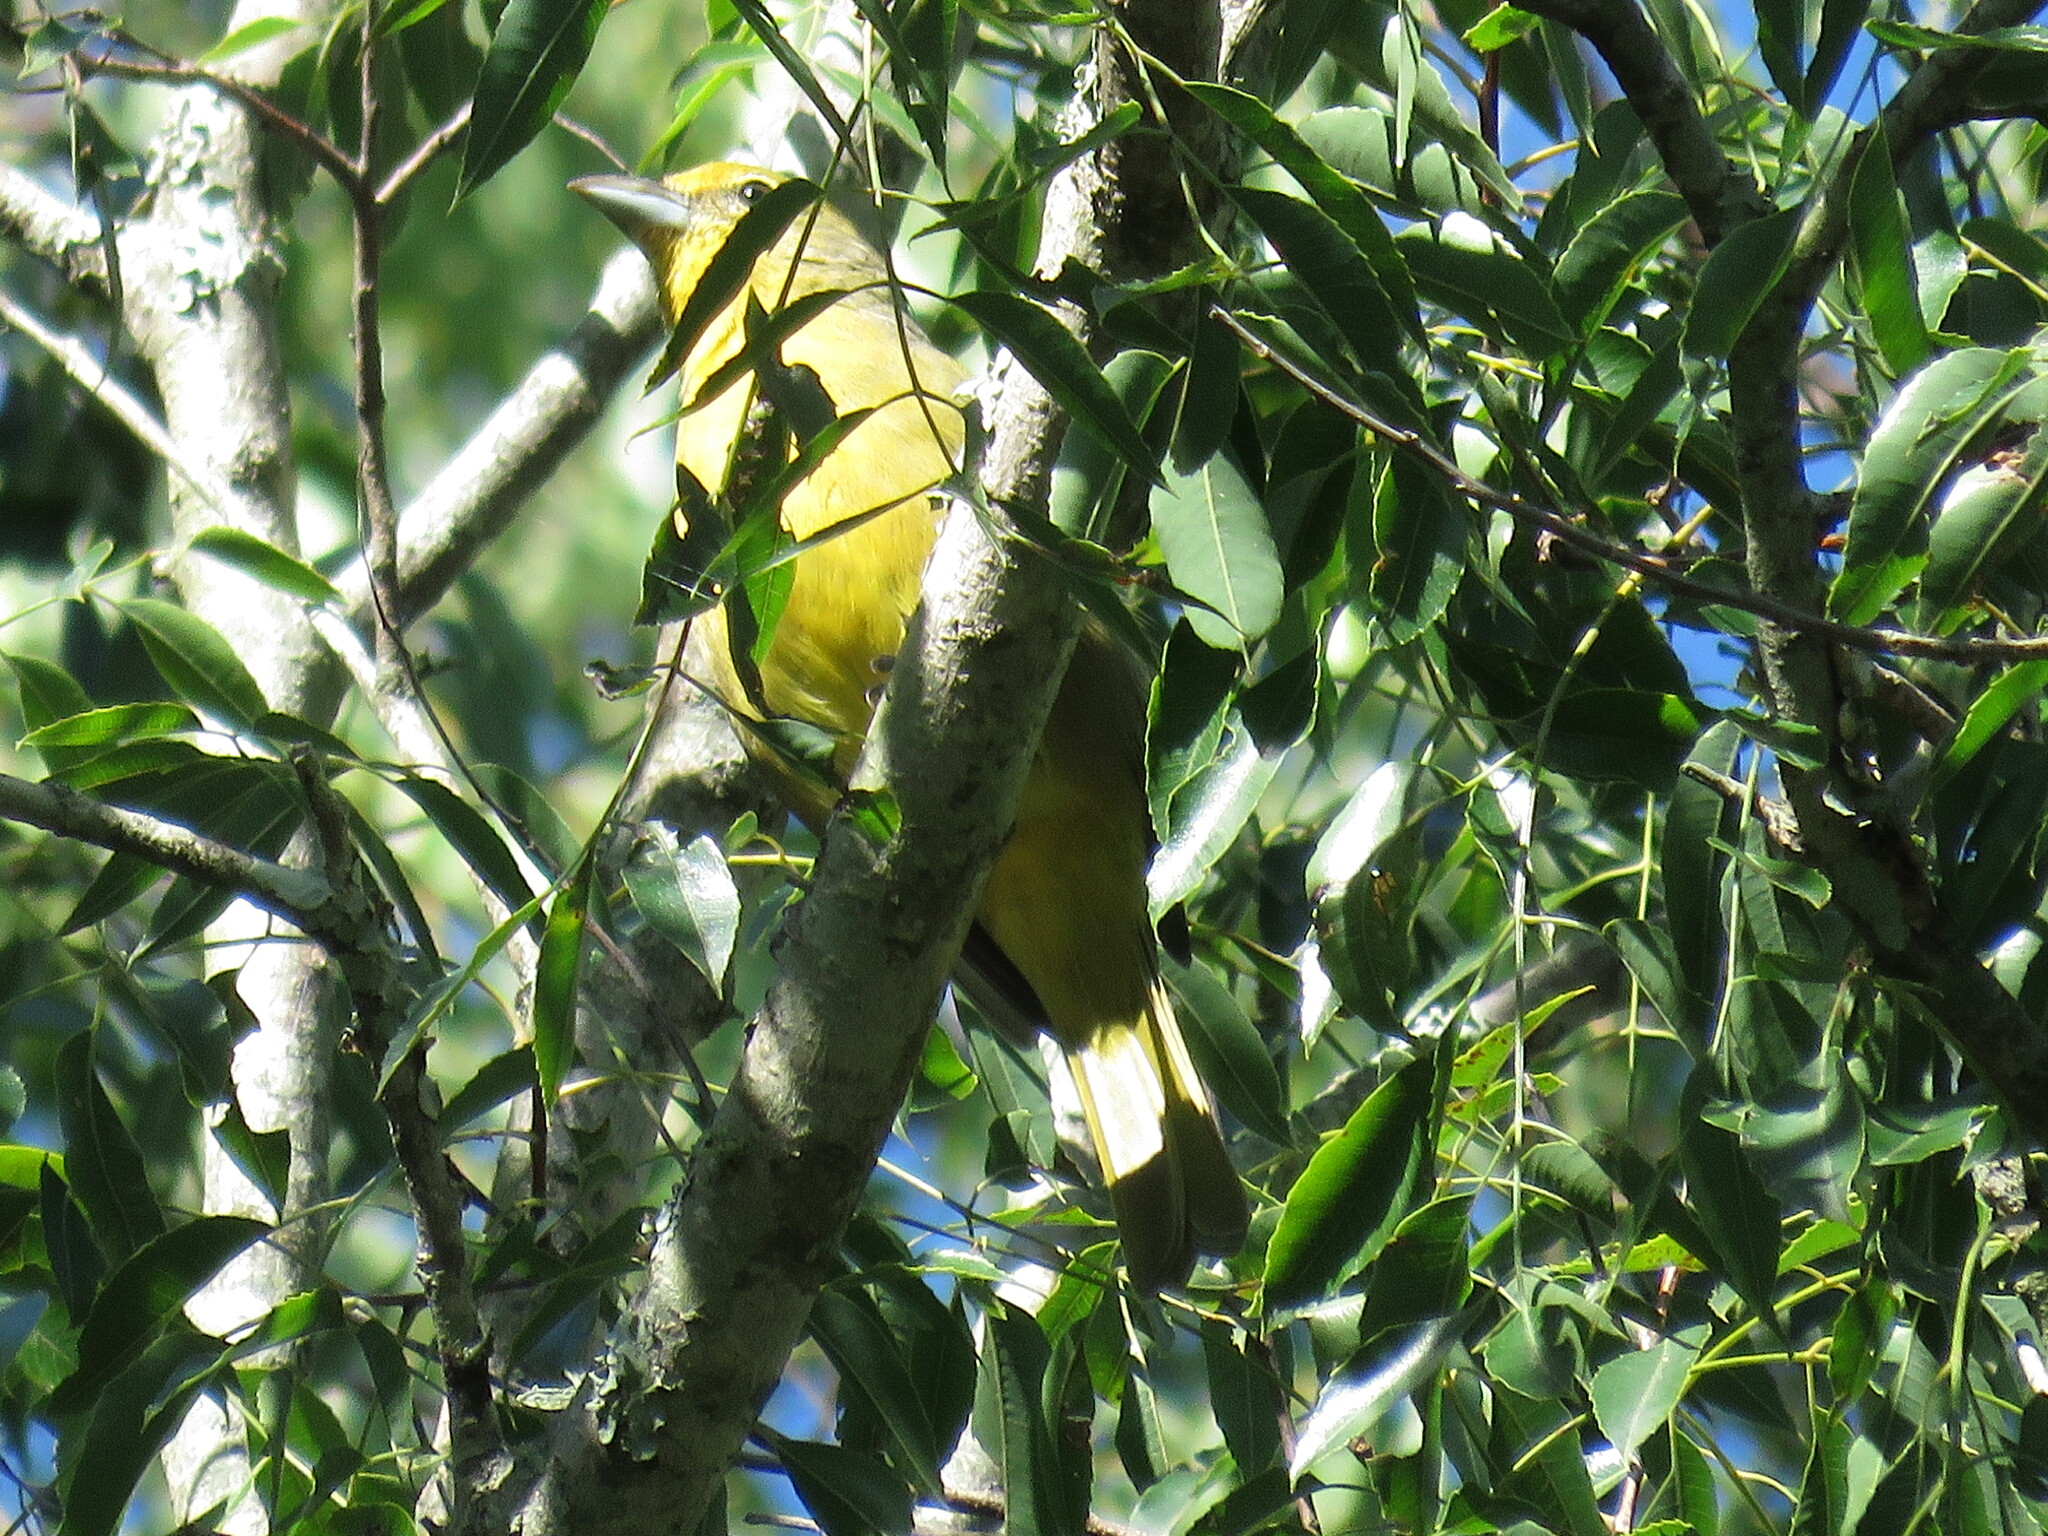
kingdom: Animalia
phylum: Chordata
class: Aves
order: Passeriformes
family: Cardinalidae
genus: Piranga
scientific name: Piranga flava
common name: Red tanager
